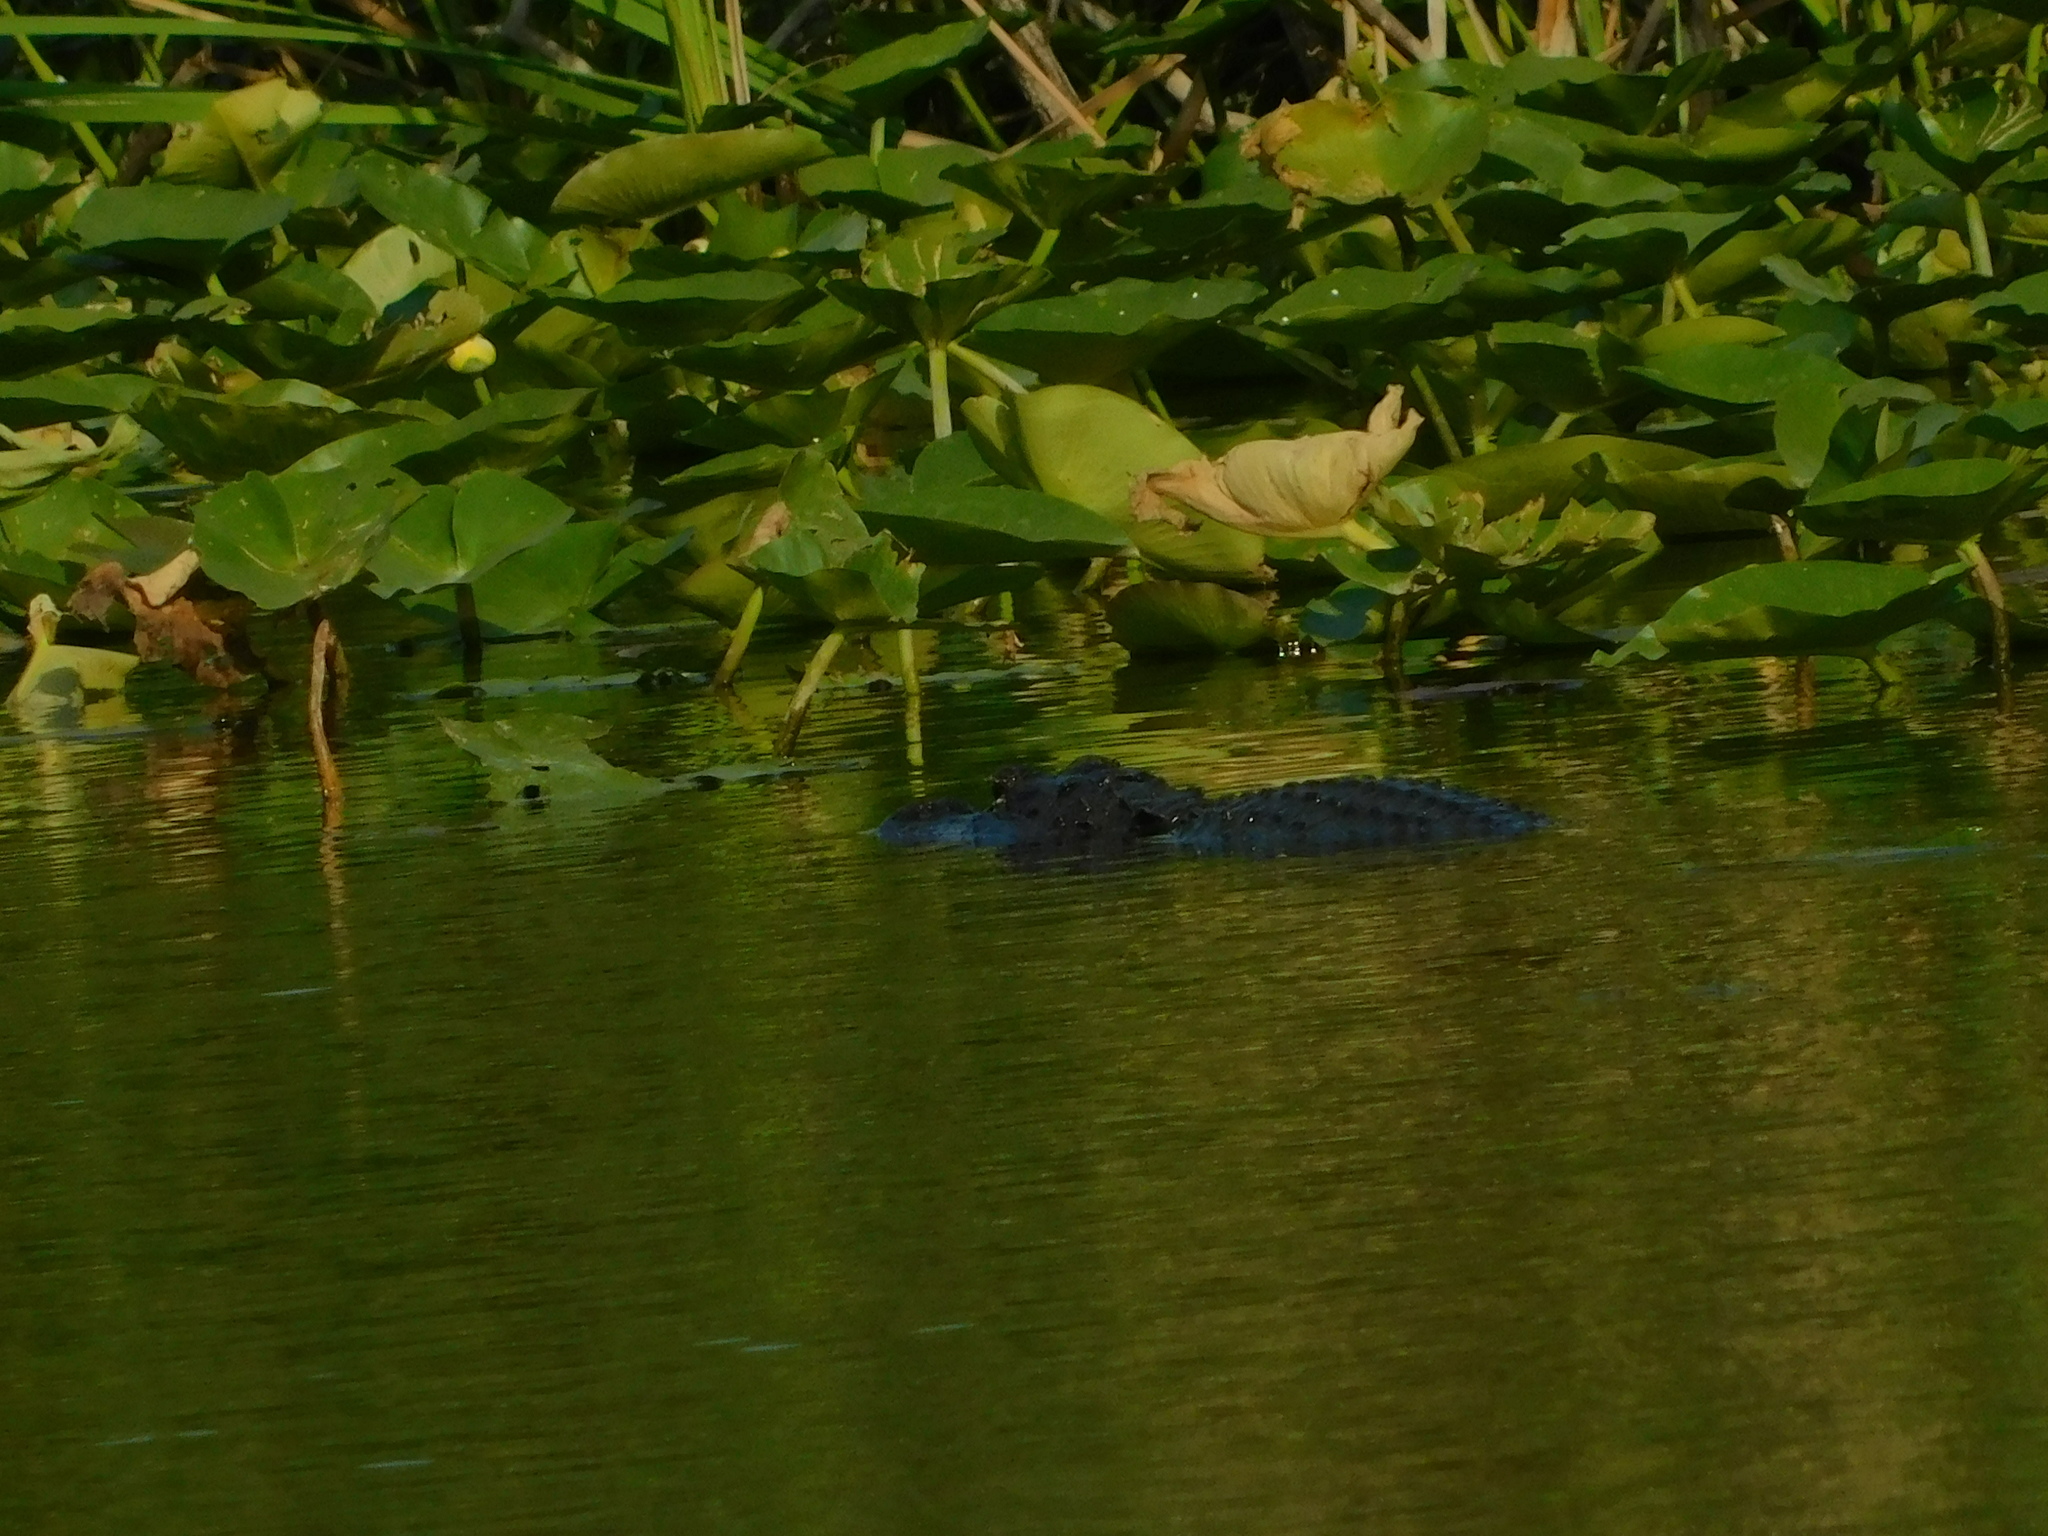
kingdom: Animalia
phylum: Chordata
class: Crocodylia
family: Alligatoridae
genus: Alligator
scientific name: Alligator mississippiensis
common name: American alligator
